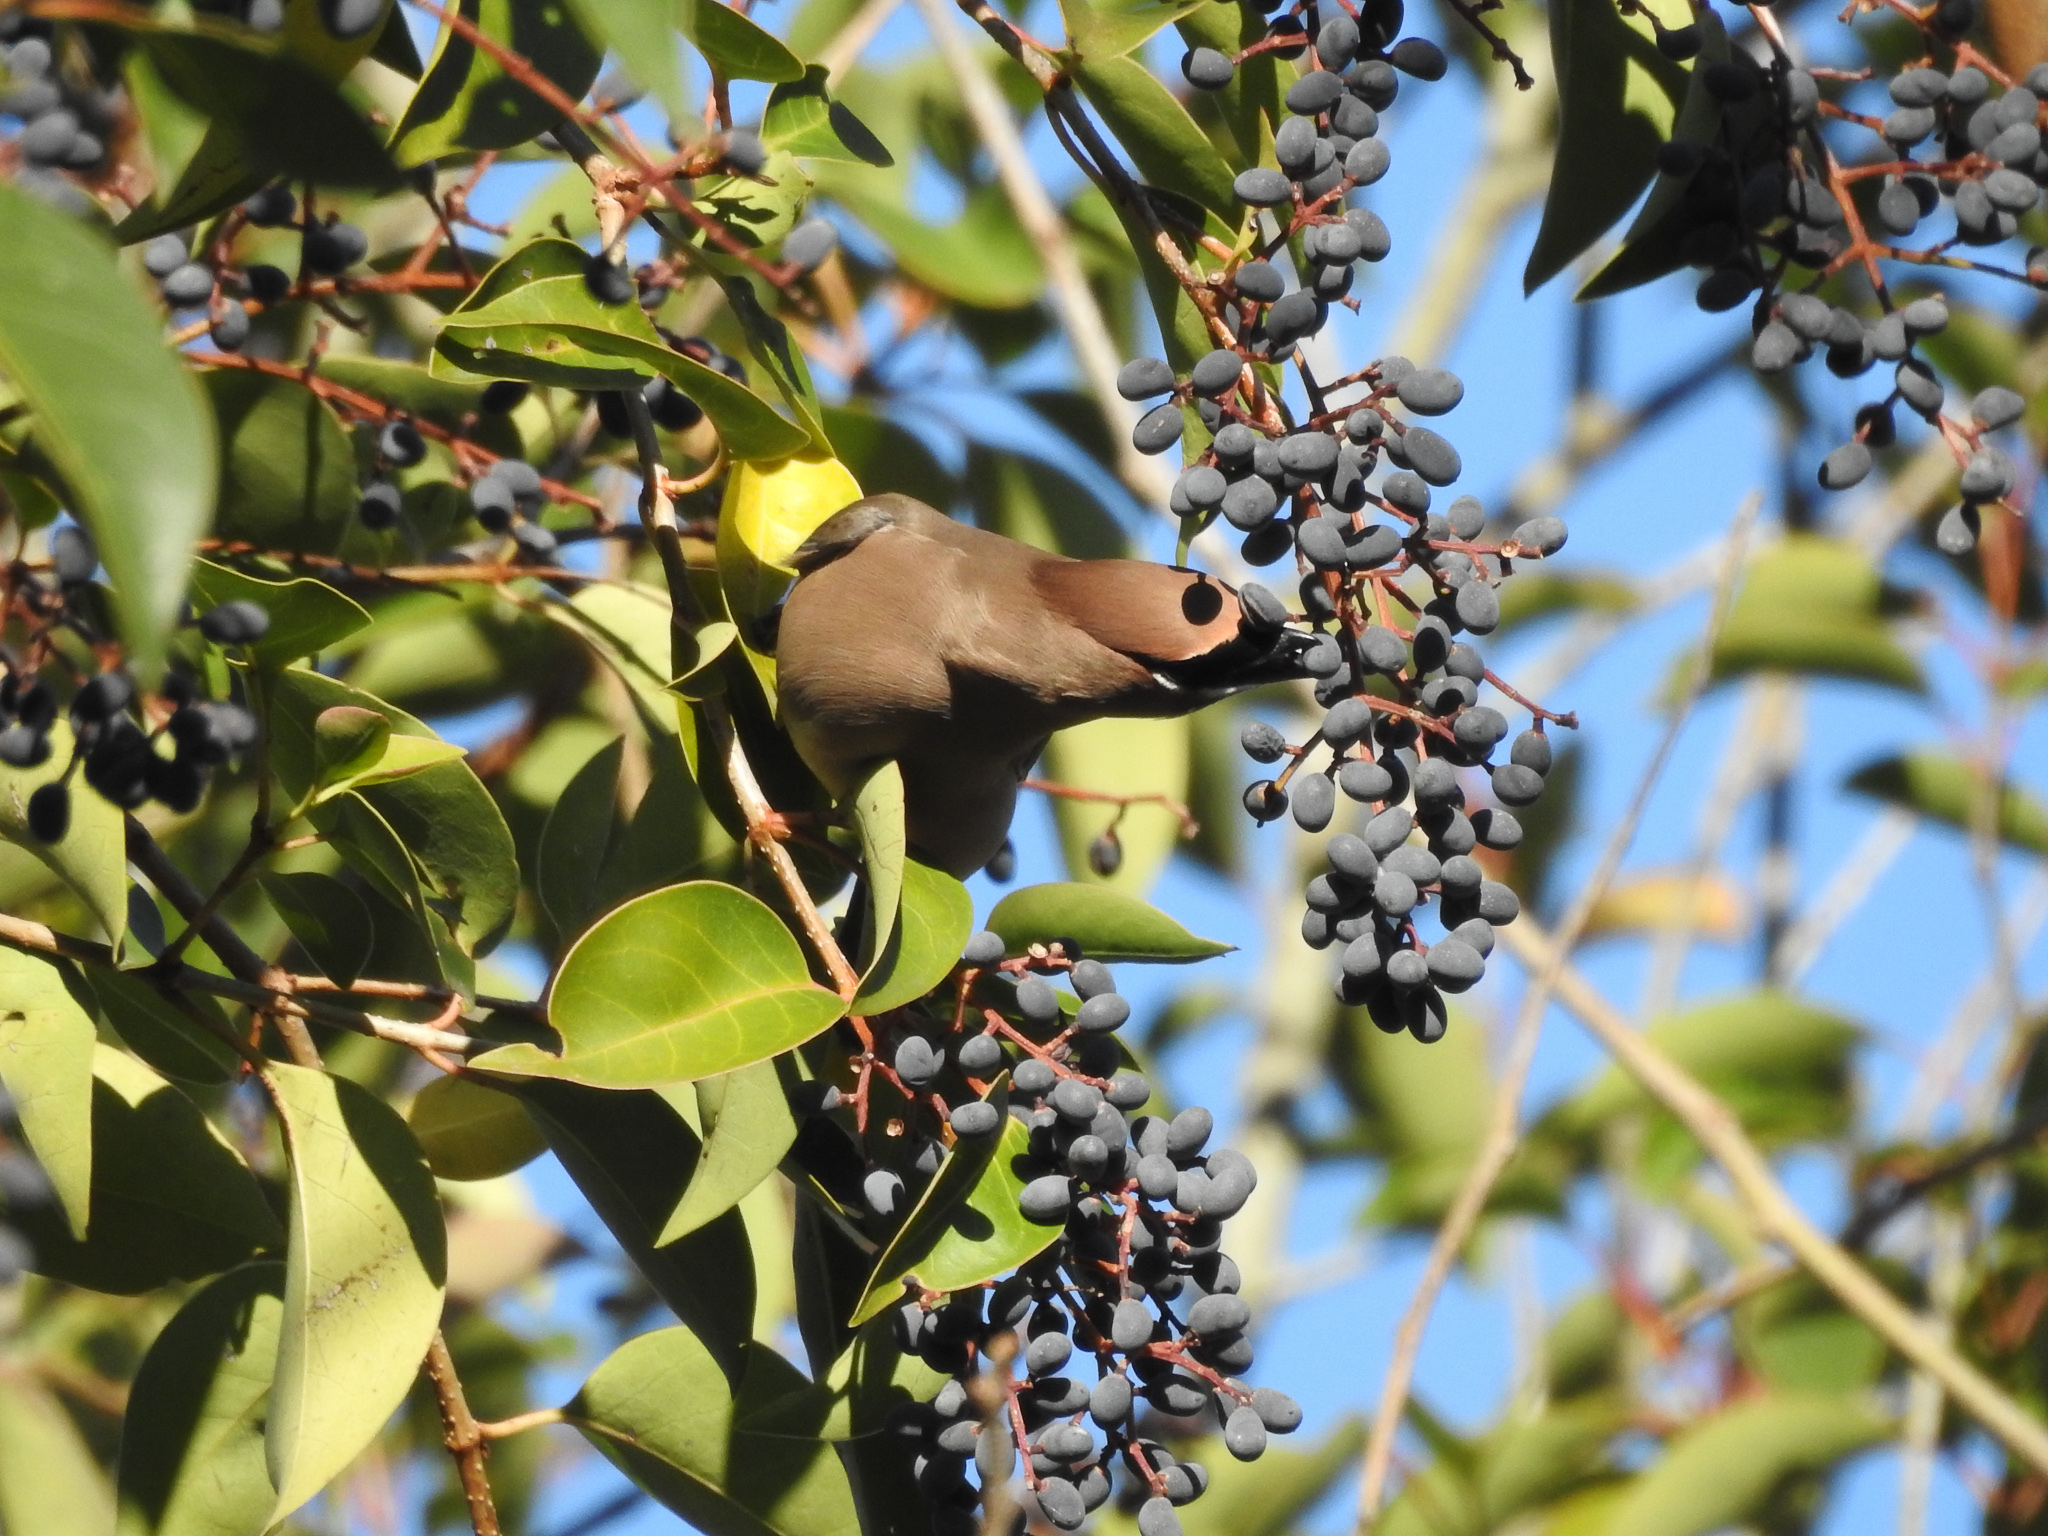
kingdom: Animalia
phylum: Chordata
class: Aves
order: Passeriformes
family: Bombycillidae
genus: Bombycilla
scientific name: Bombycilla cedrorum
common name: Cedar waxwing
